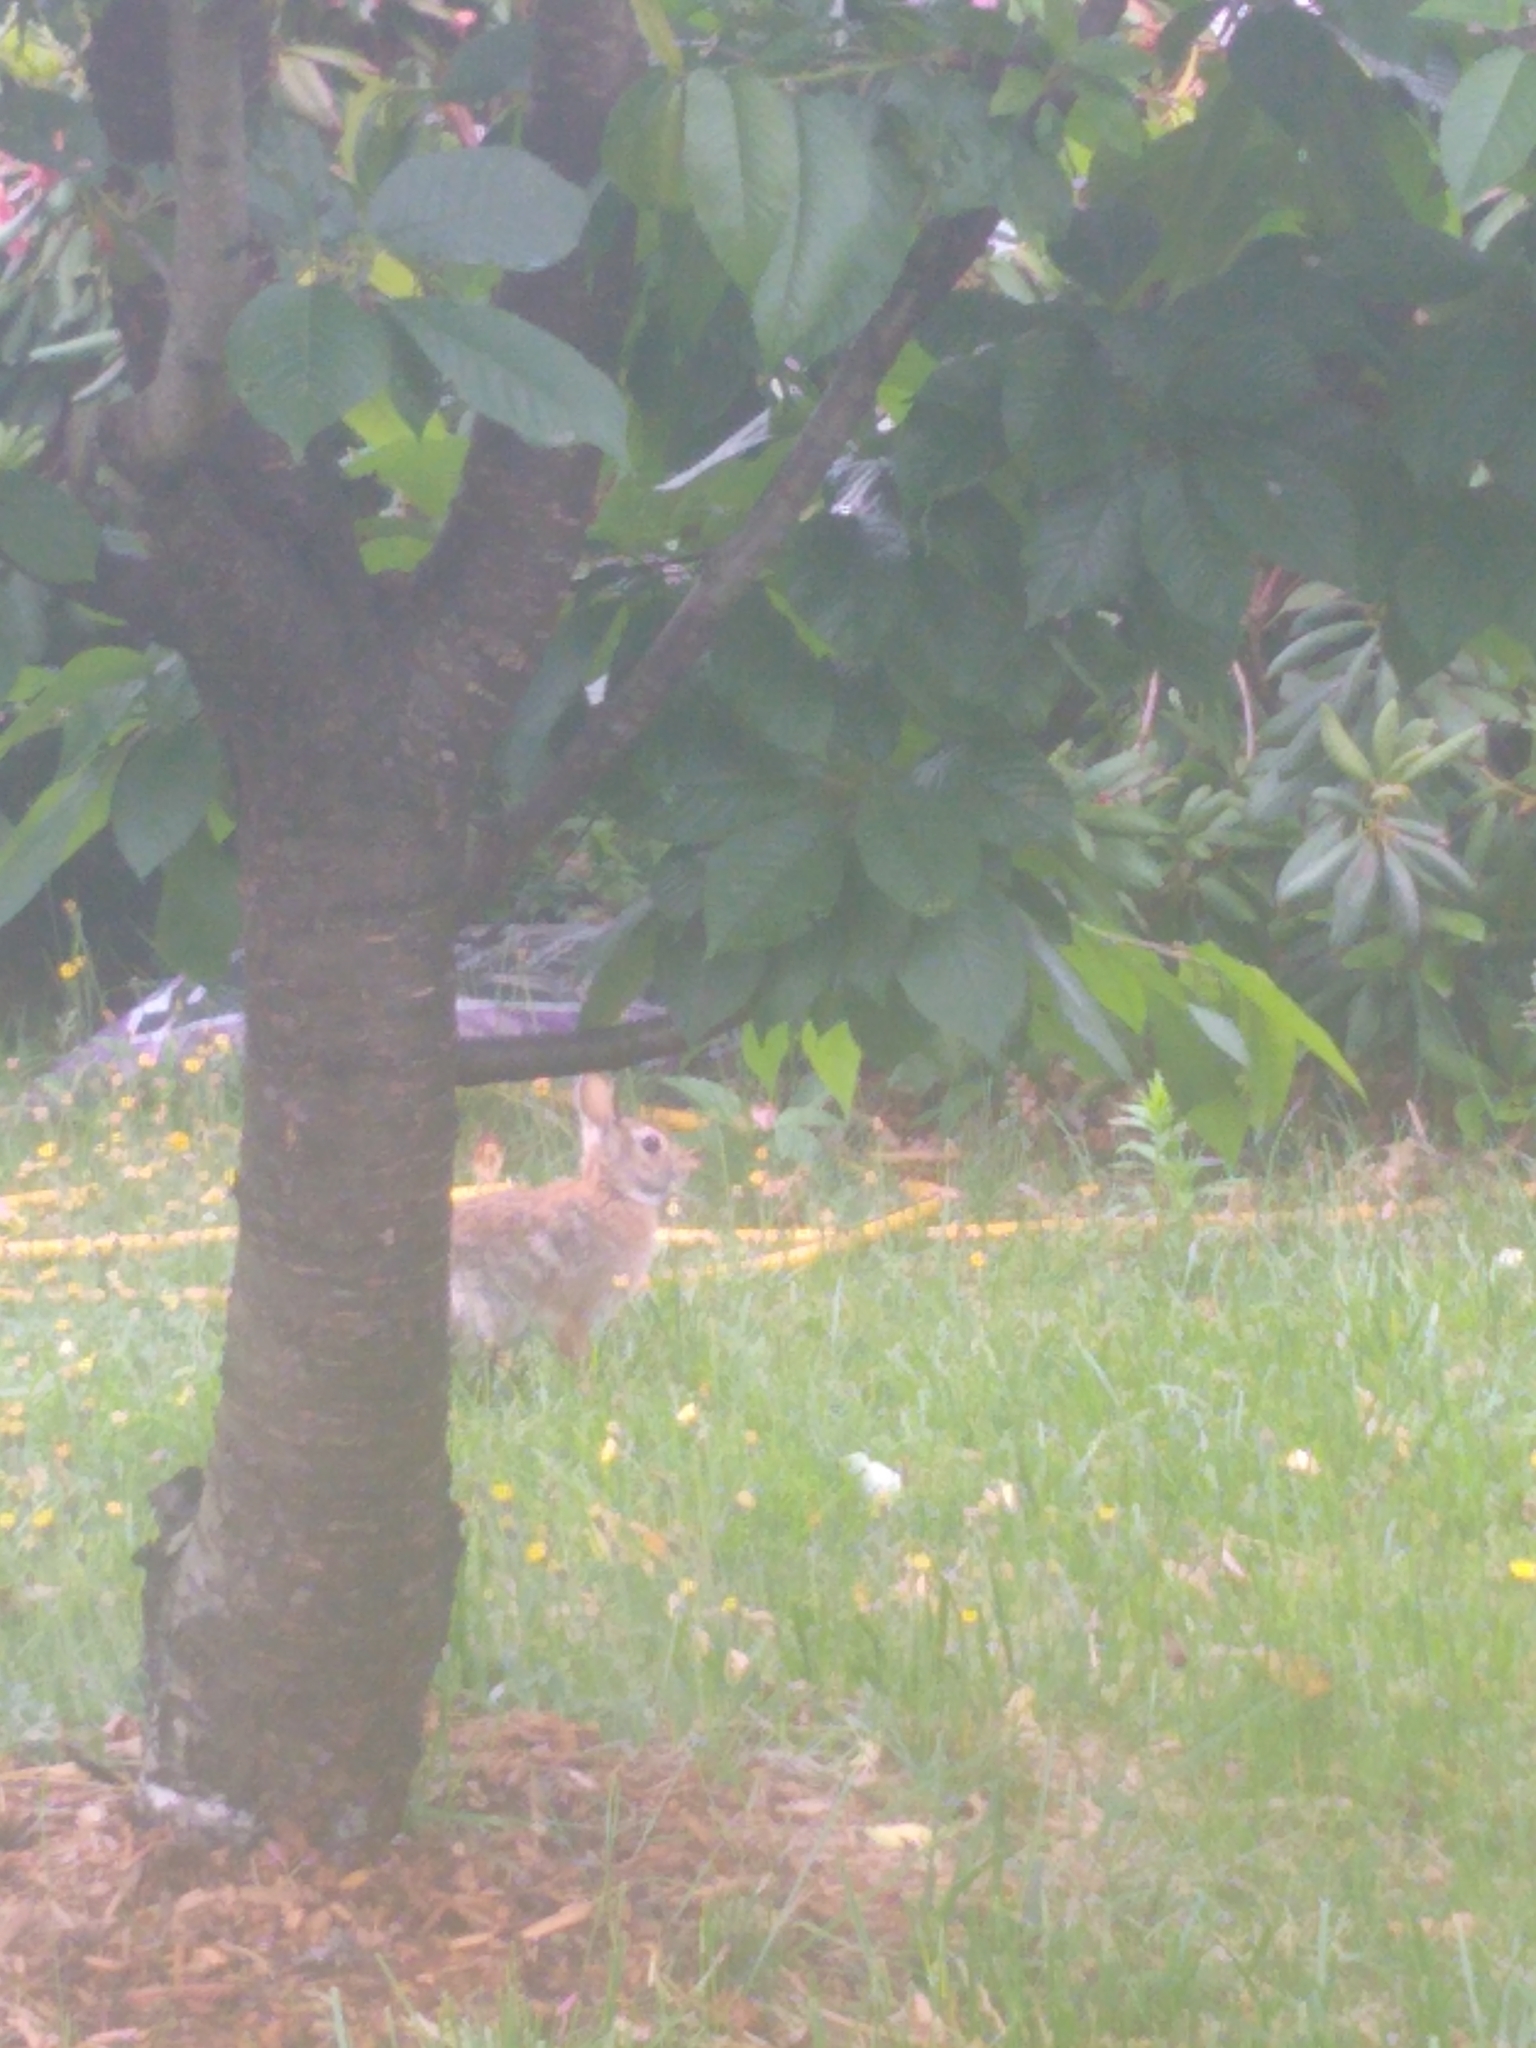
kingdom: Animalia
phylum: Chordata
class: Mammalia
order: Lagomorpha
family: Leporidae
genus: Sylvilagus
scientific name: Sylvilagus floridanus
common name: Eastern cottontail
